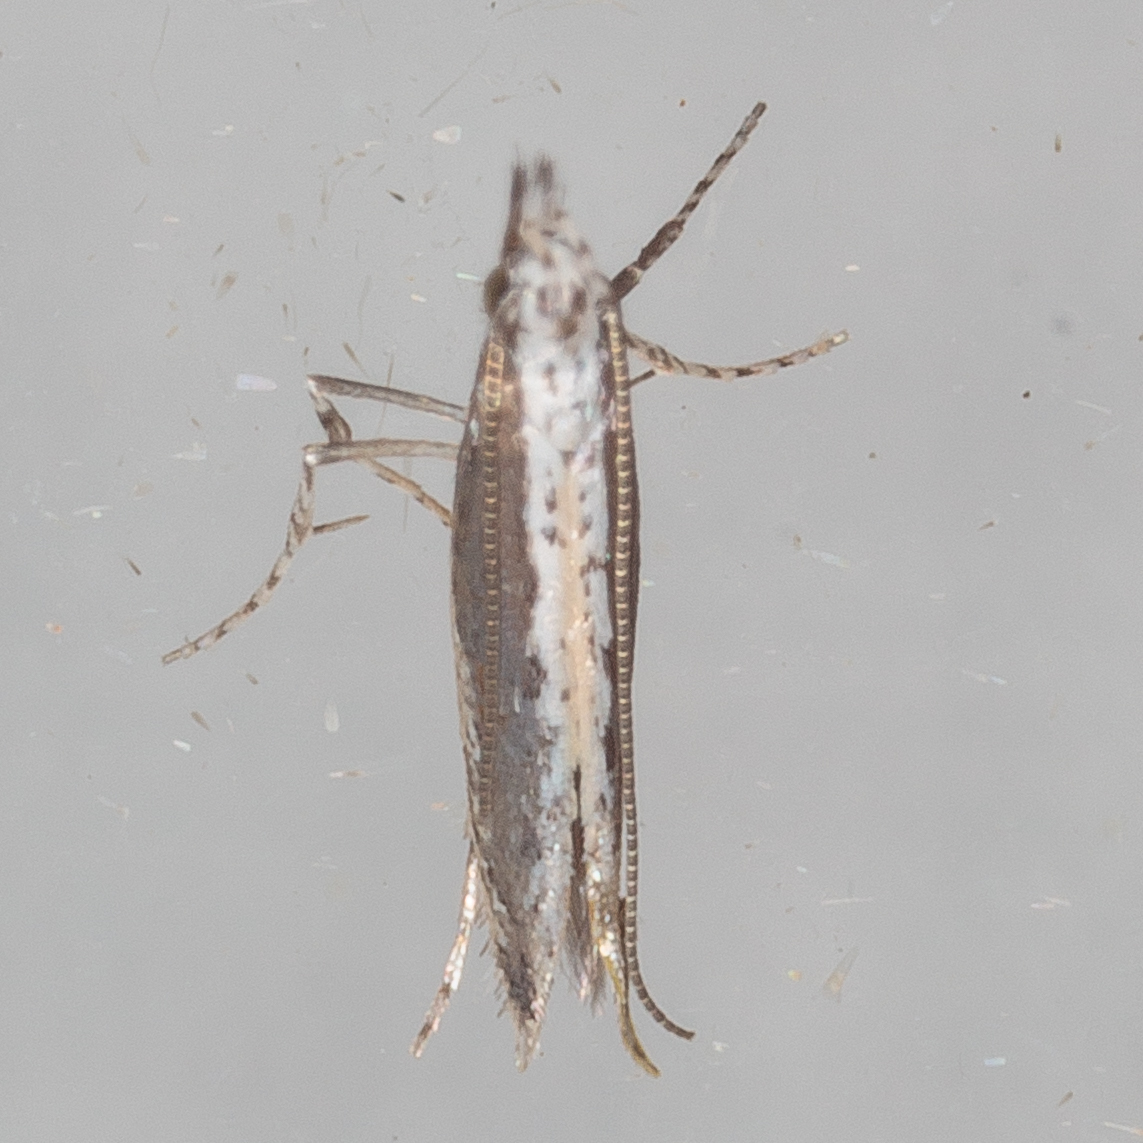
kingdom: Plantae
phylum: Rhodophyta
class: Florideophyceae
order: Gracilariales
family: Gracilariaceae
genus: Gracilaria
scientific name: Gracilaria
